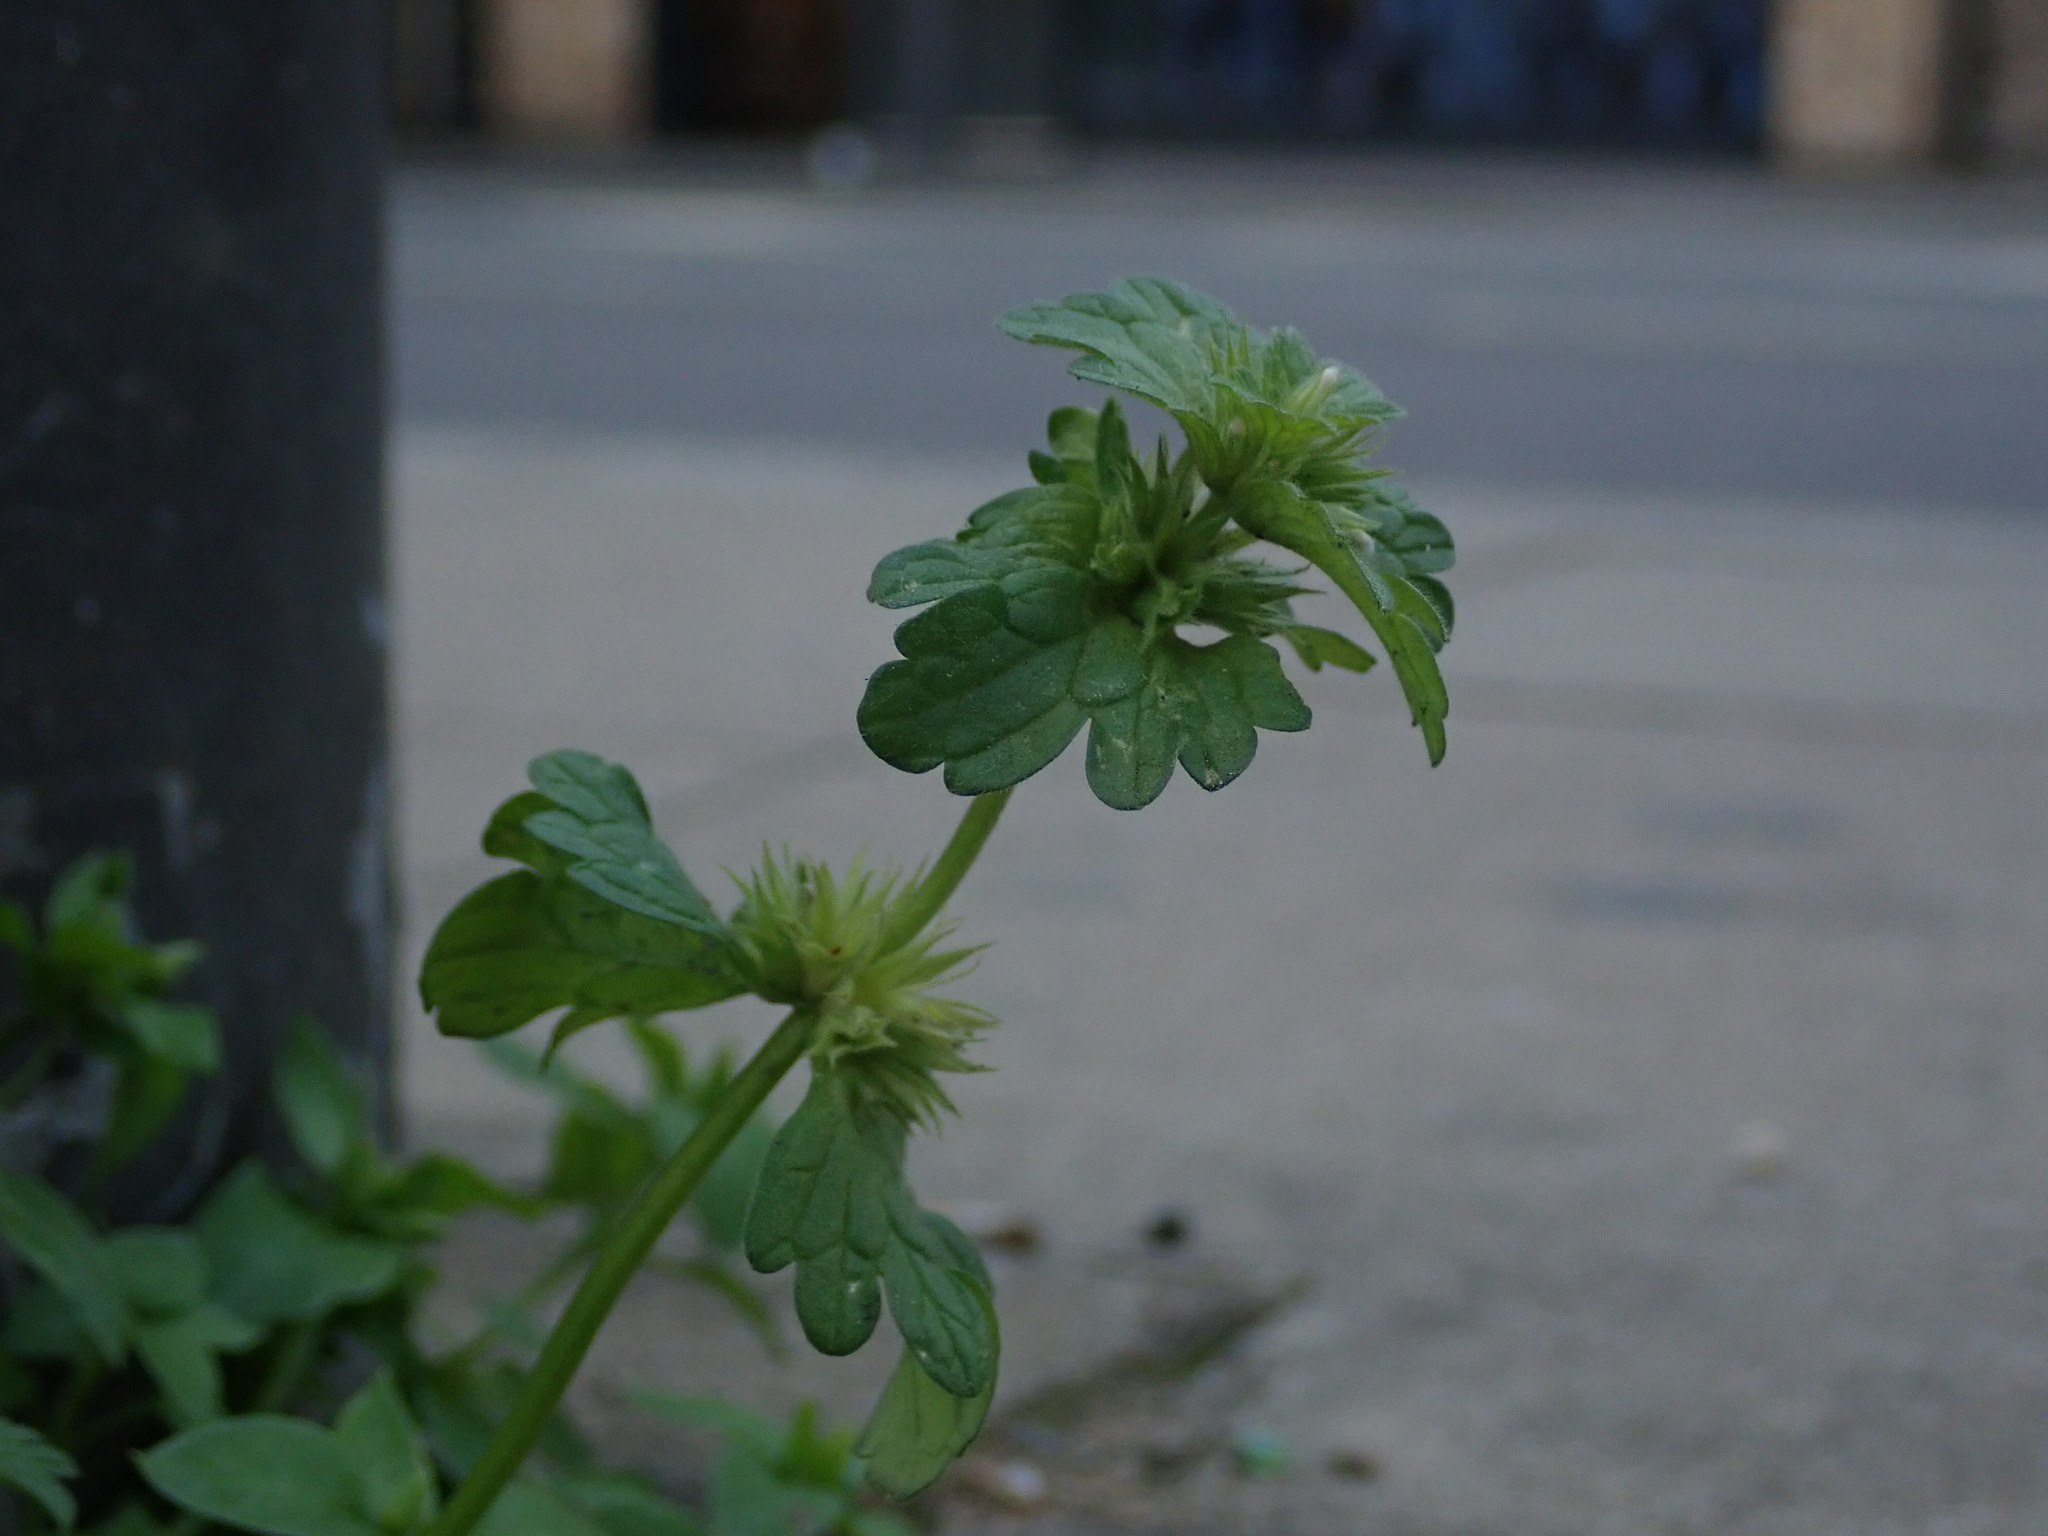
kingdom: Plantae
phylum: Tracheophyta
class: Magnoliopsida
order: Lamiales
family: Lamiaceae
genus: Lamium
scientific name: Lamium amplexicaule
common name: Henbit dead-nettle
